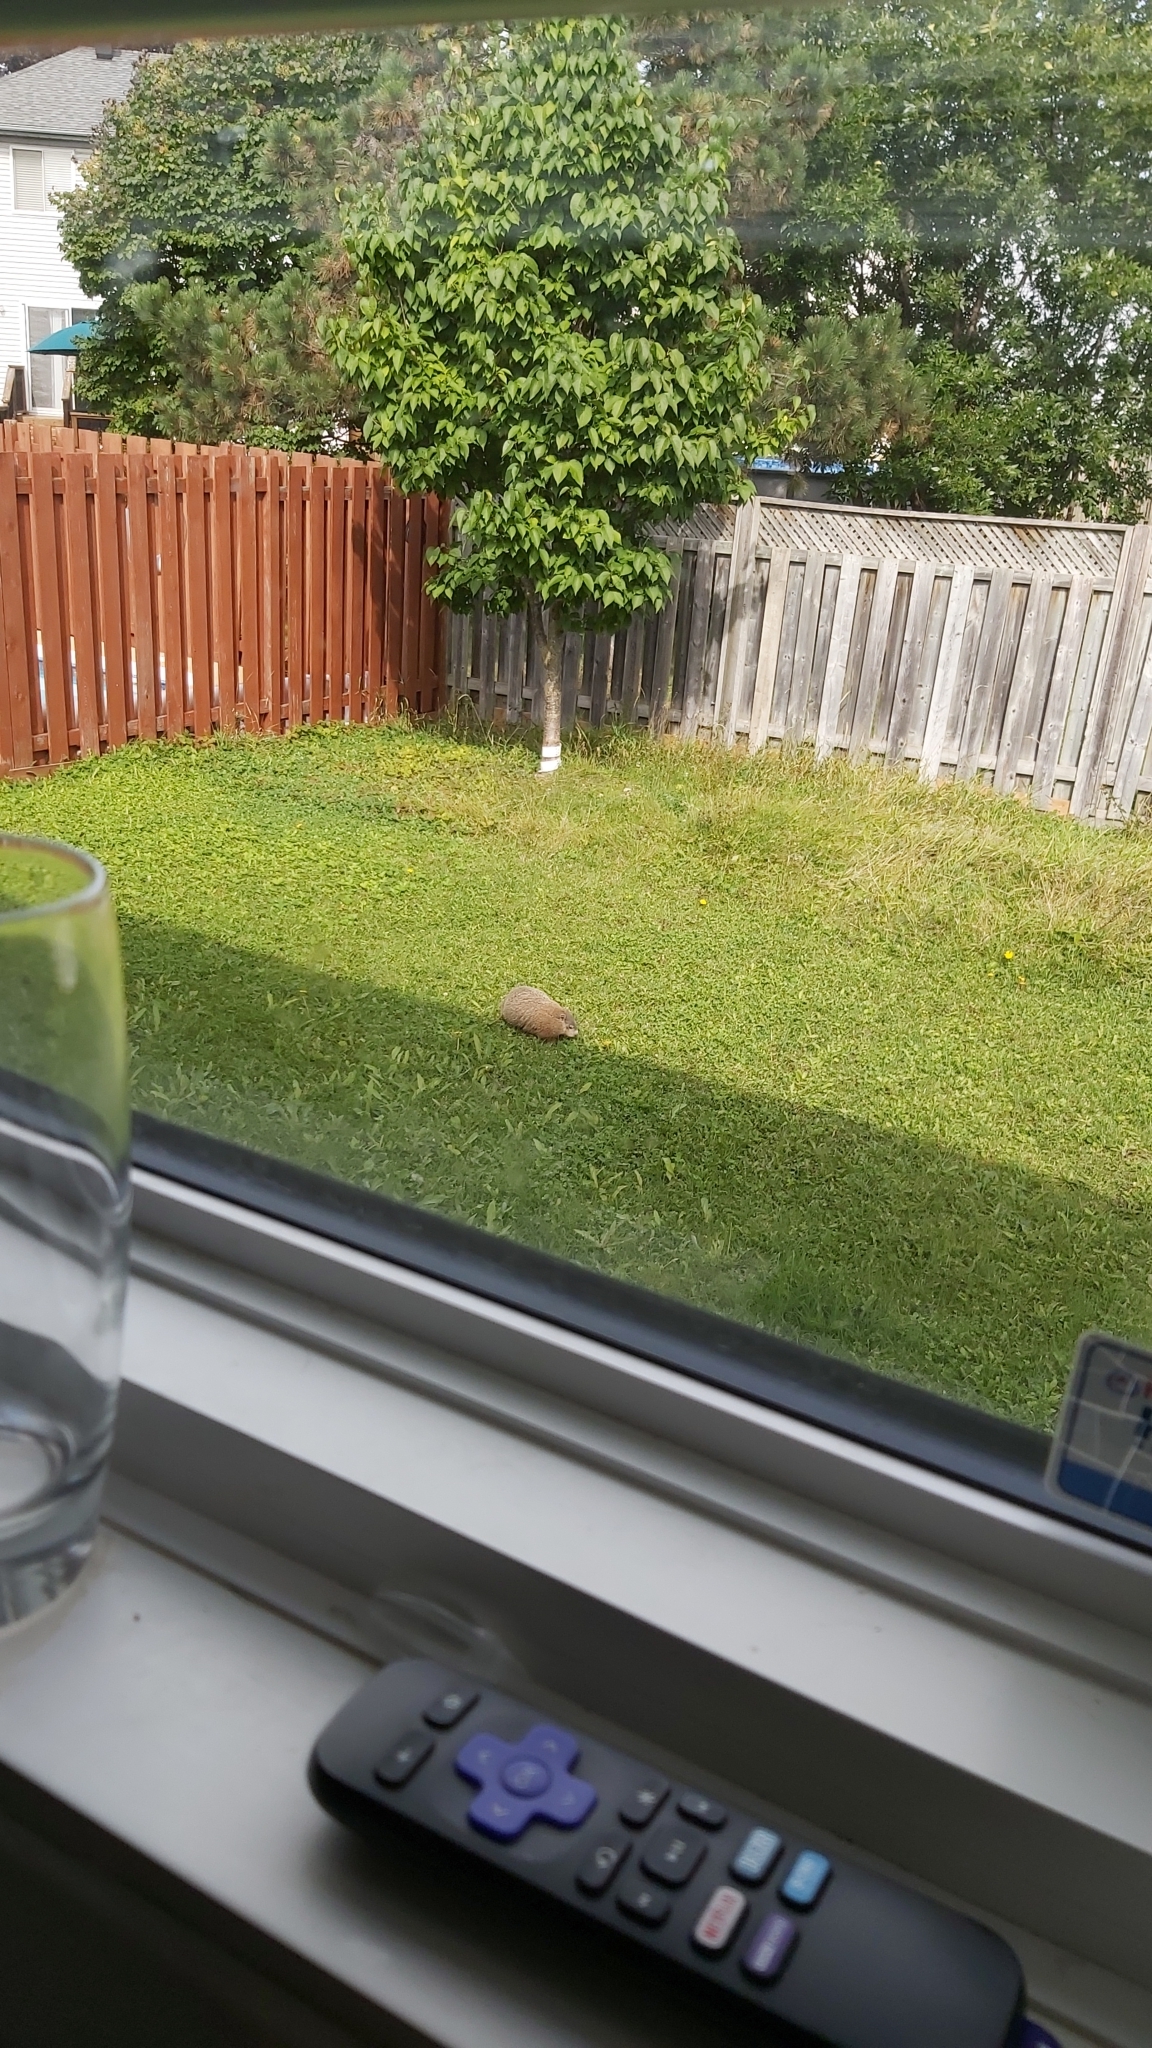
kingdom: Animalia
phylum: Chordata
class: Mammalia
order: Rodentia
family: Sciuridae
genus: Marmota
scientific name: Marmota monax
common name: Groundhog
